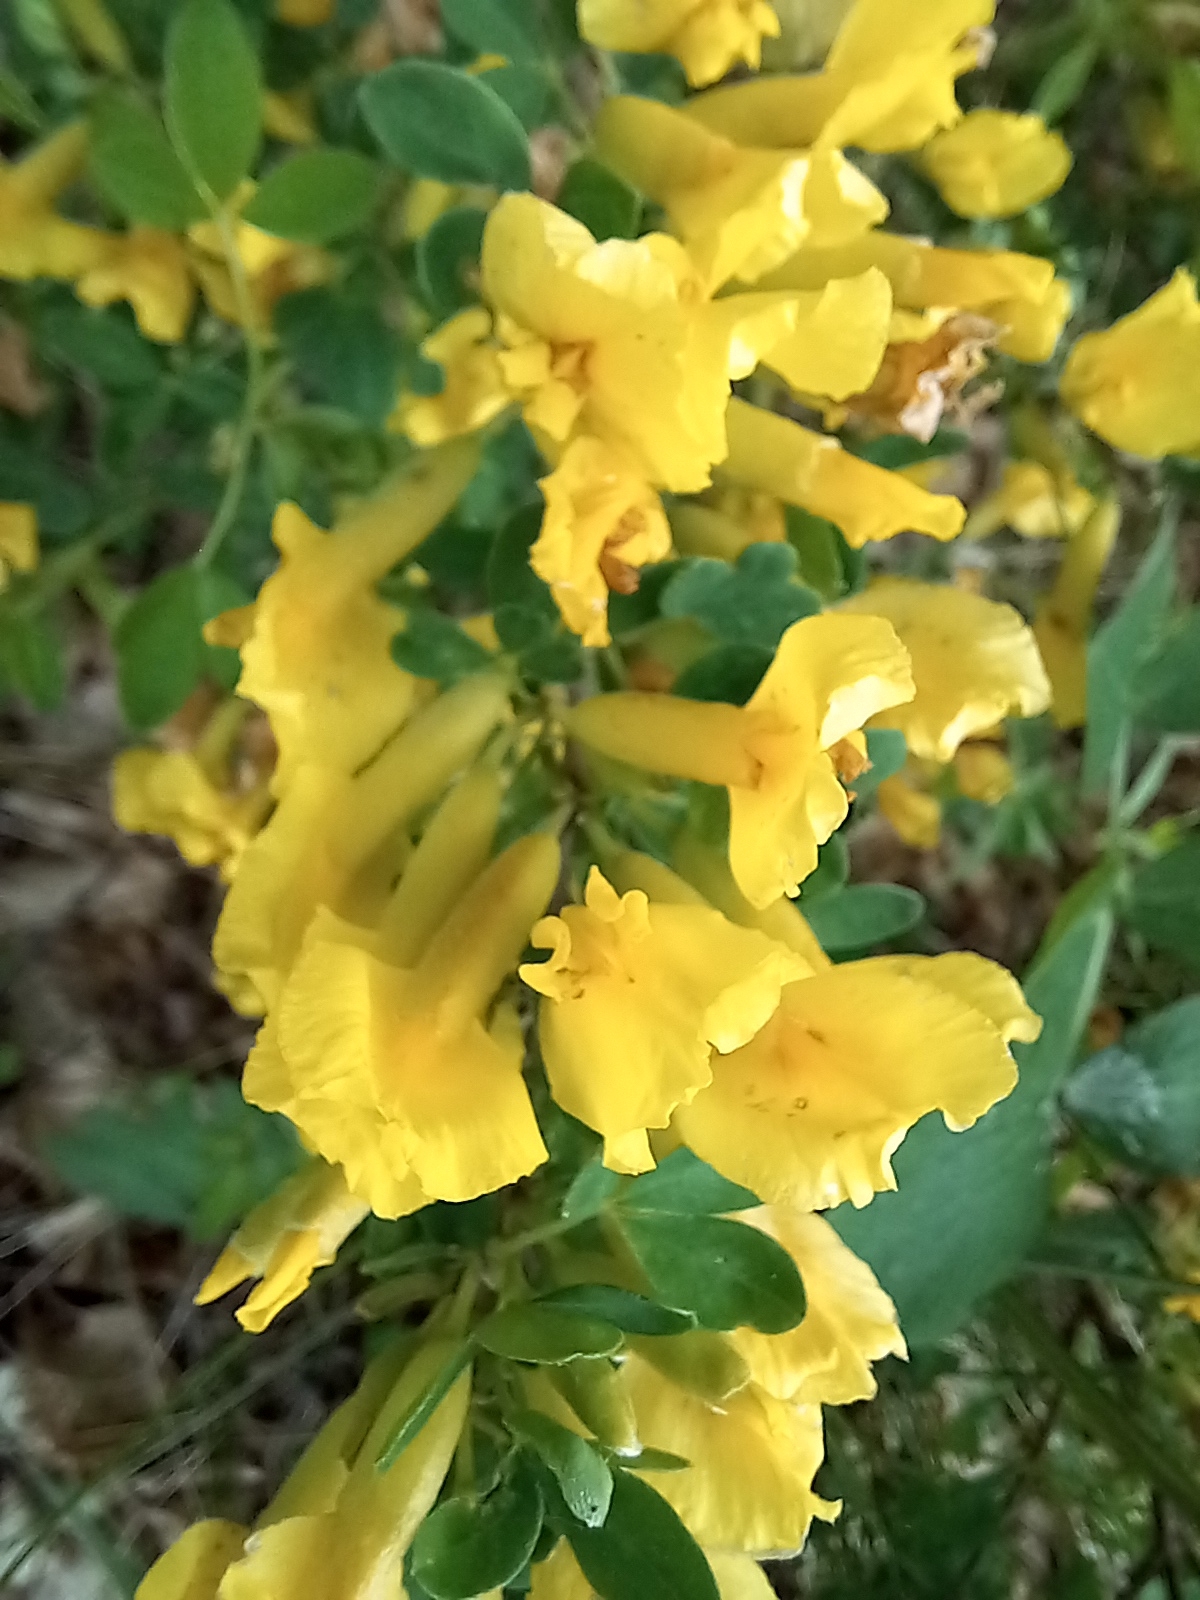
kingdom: Plantae
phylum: Tracheophyta
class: Magnoliopsida
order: Fabales
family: Fabaceae
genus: Chamaecytisus
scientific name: Chamaecytisus ruthenicus
